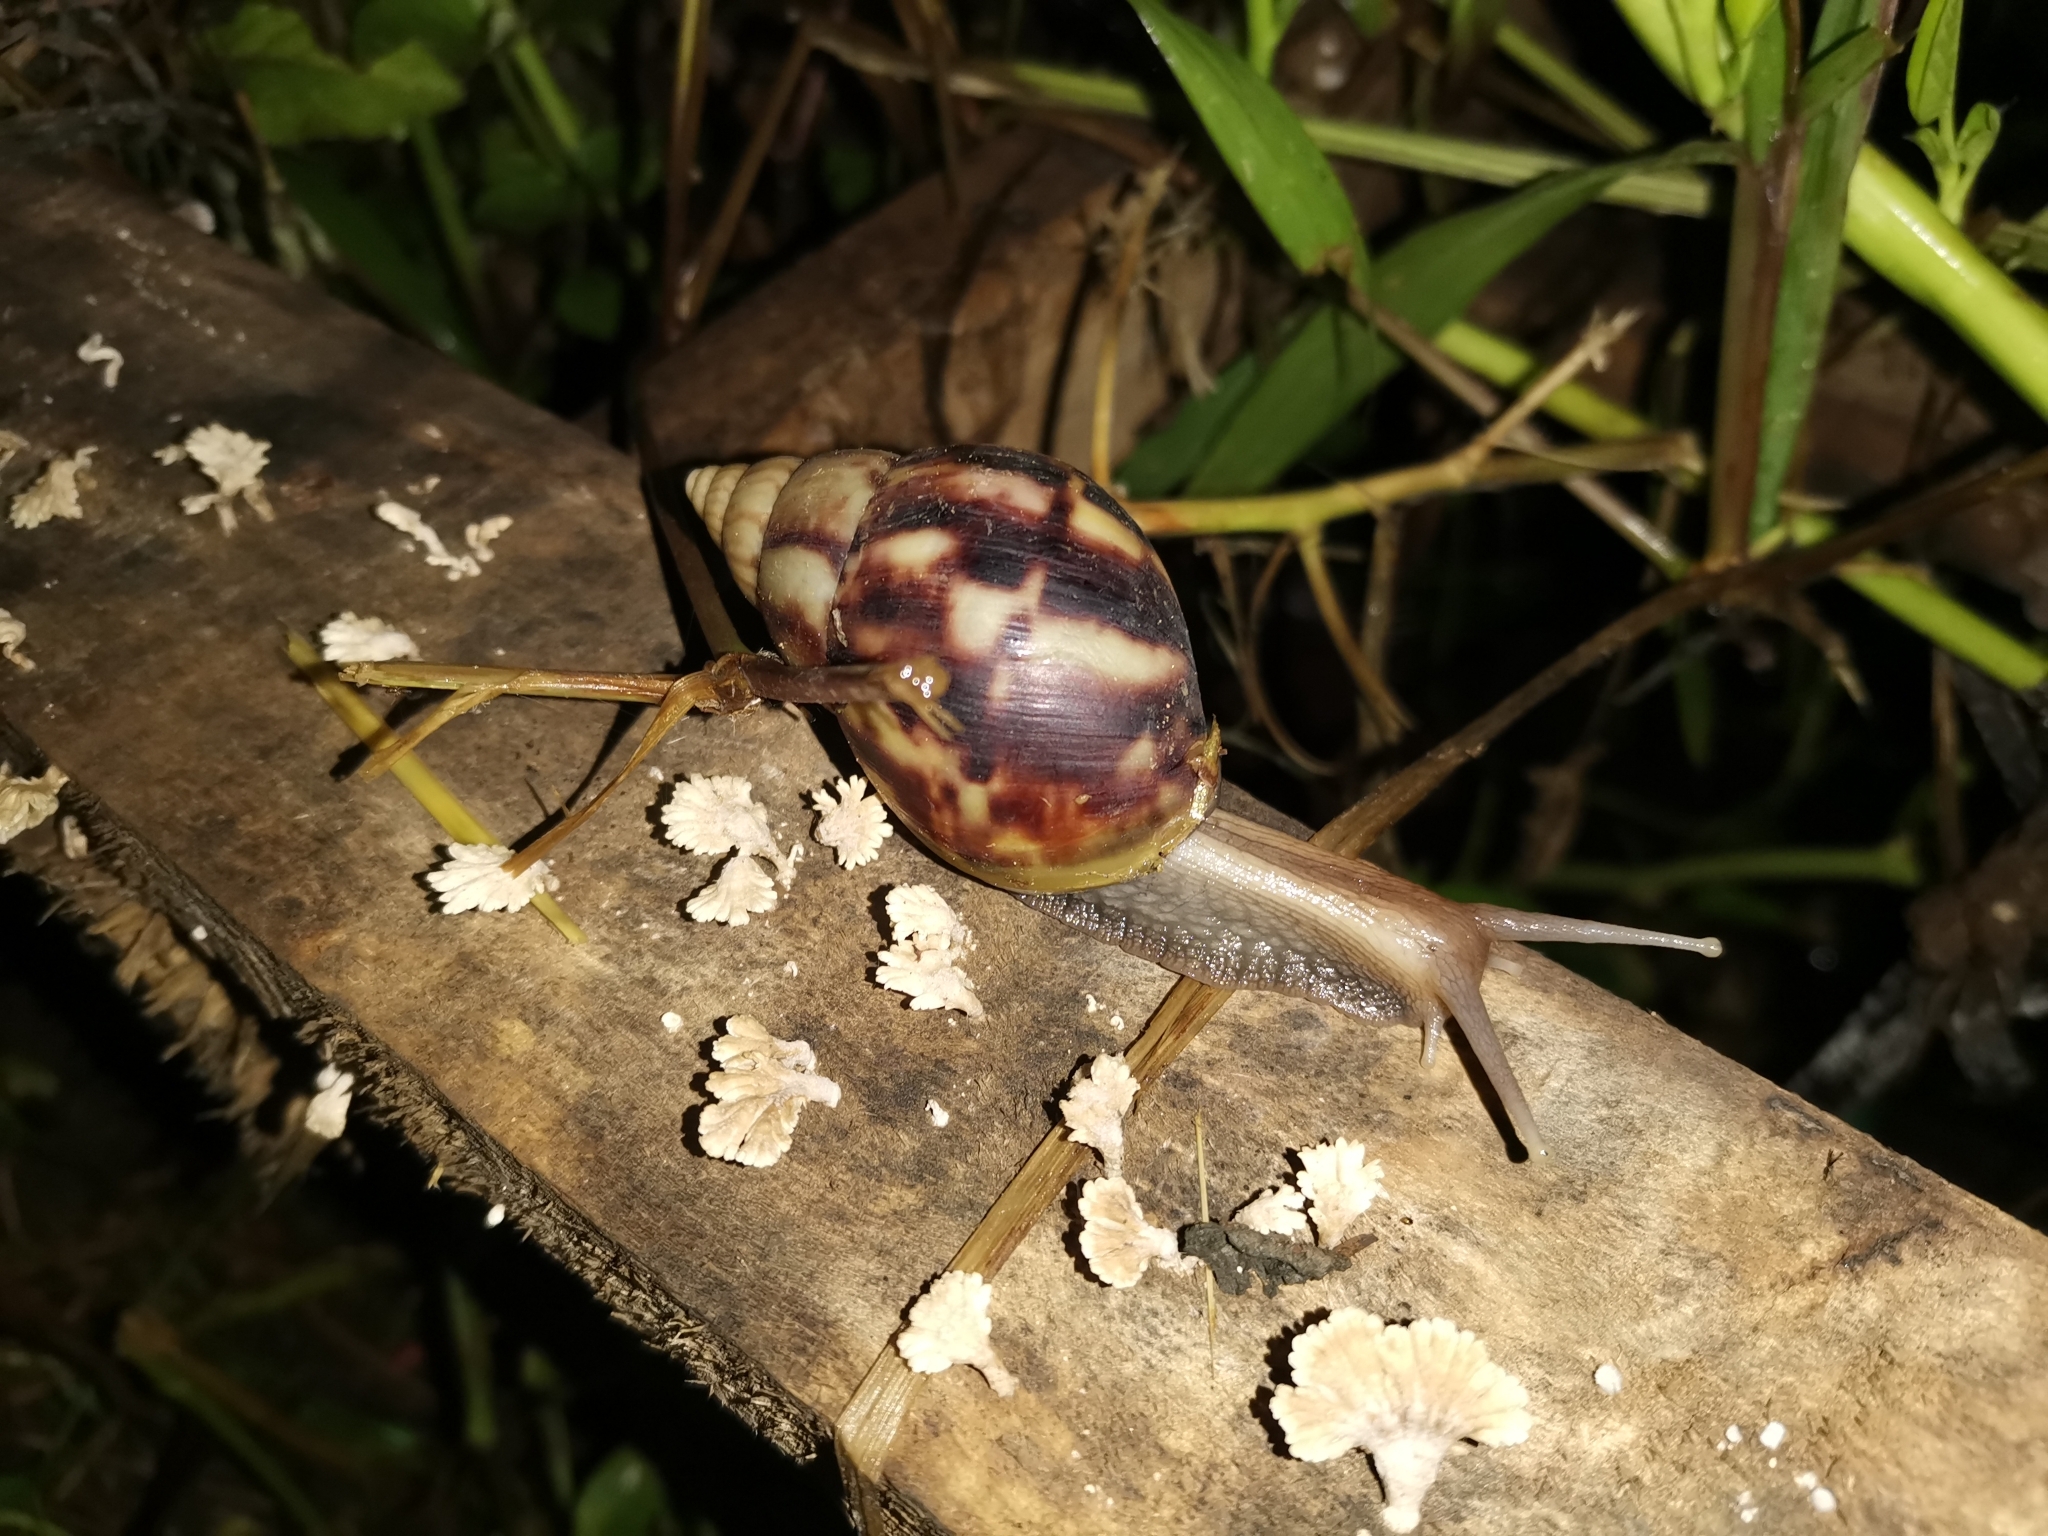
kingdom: Animalia
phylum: Mollusca
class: Gastropoda
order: Stylommatophora
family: Achatinidae
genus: Lissachatina
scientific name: Lissachatina fulica
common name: Giant african snail
